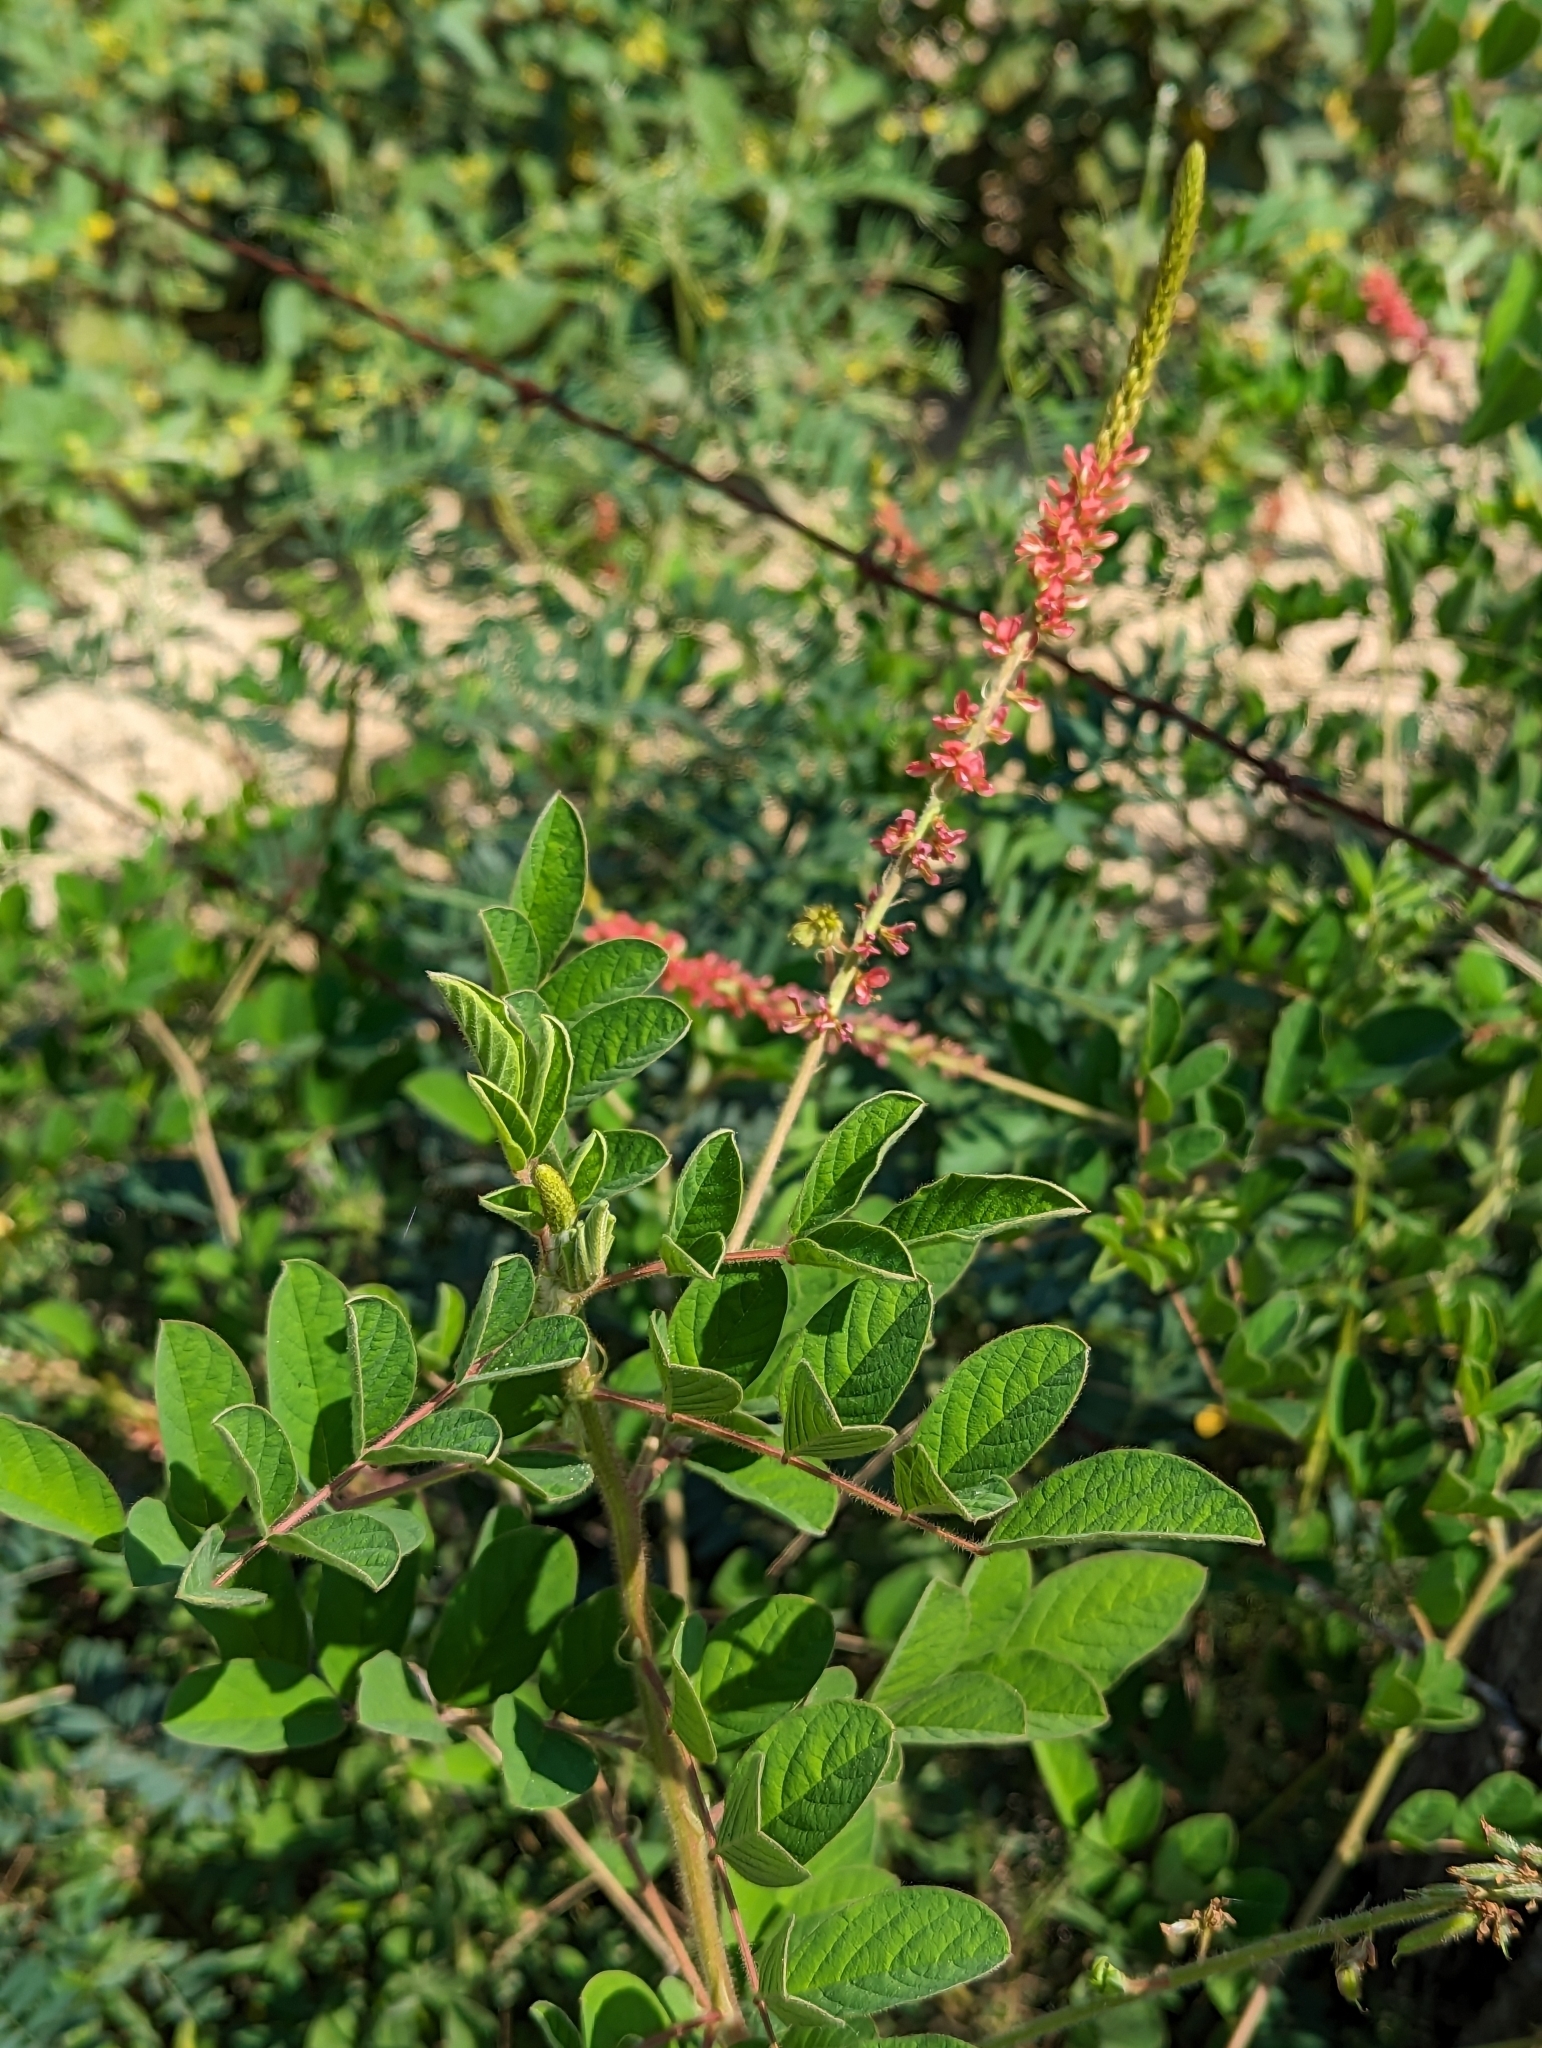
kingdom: Plantae
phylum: Tracheophyta
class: Magnoliopsida
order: Fabales
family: Fabaceae
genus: Indigofera
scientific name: Indigofera hirsuta
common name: Hairy indigo
